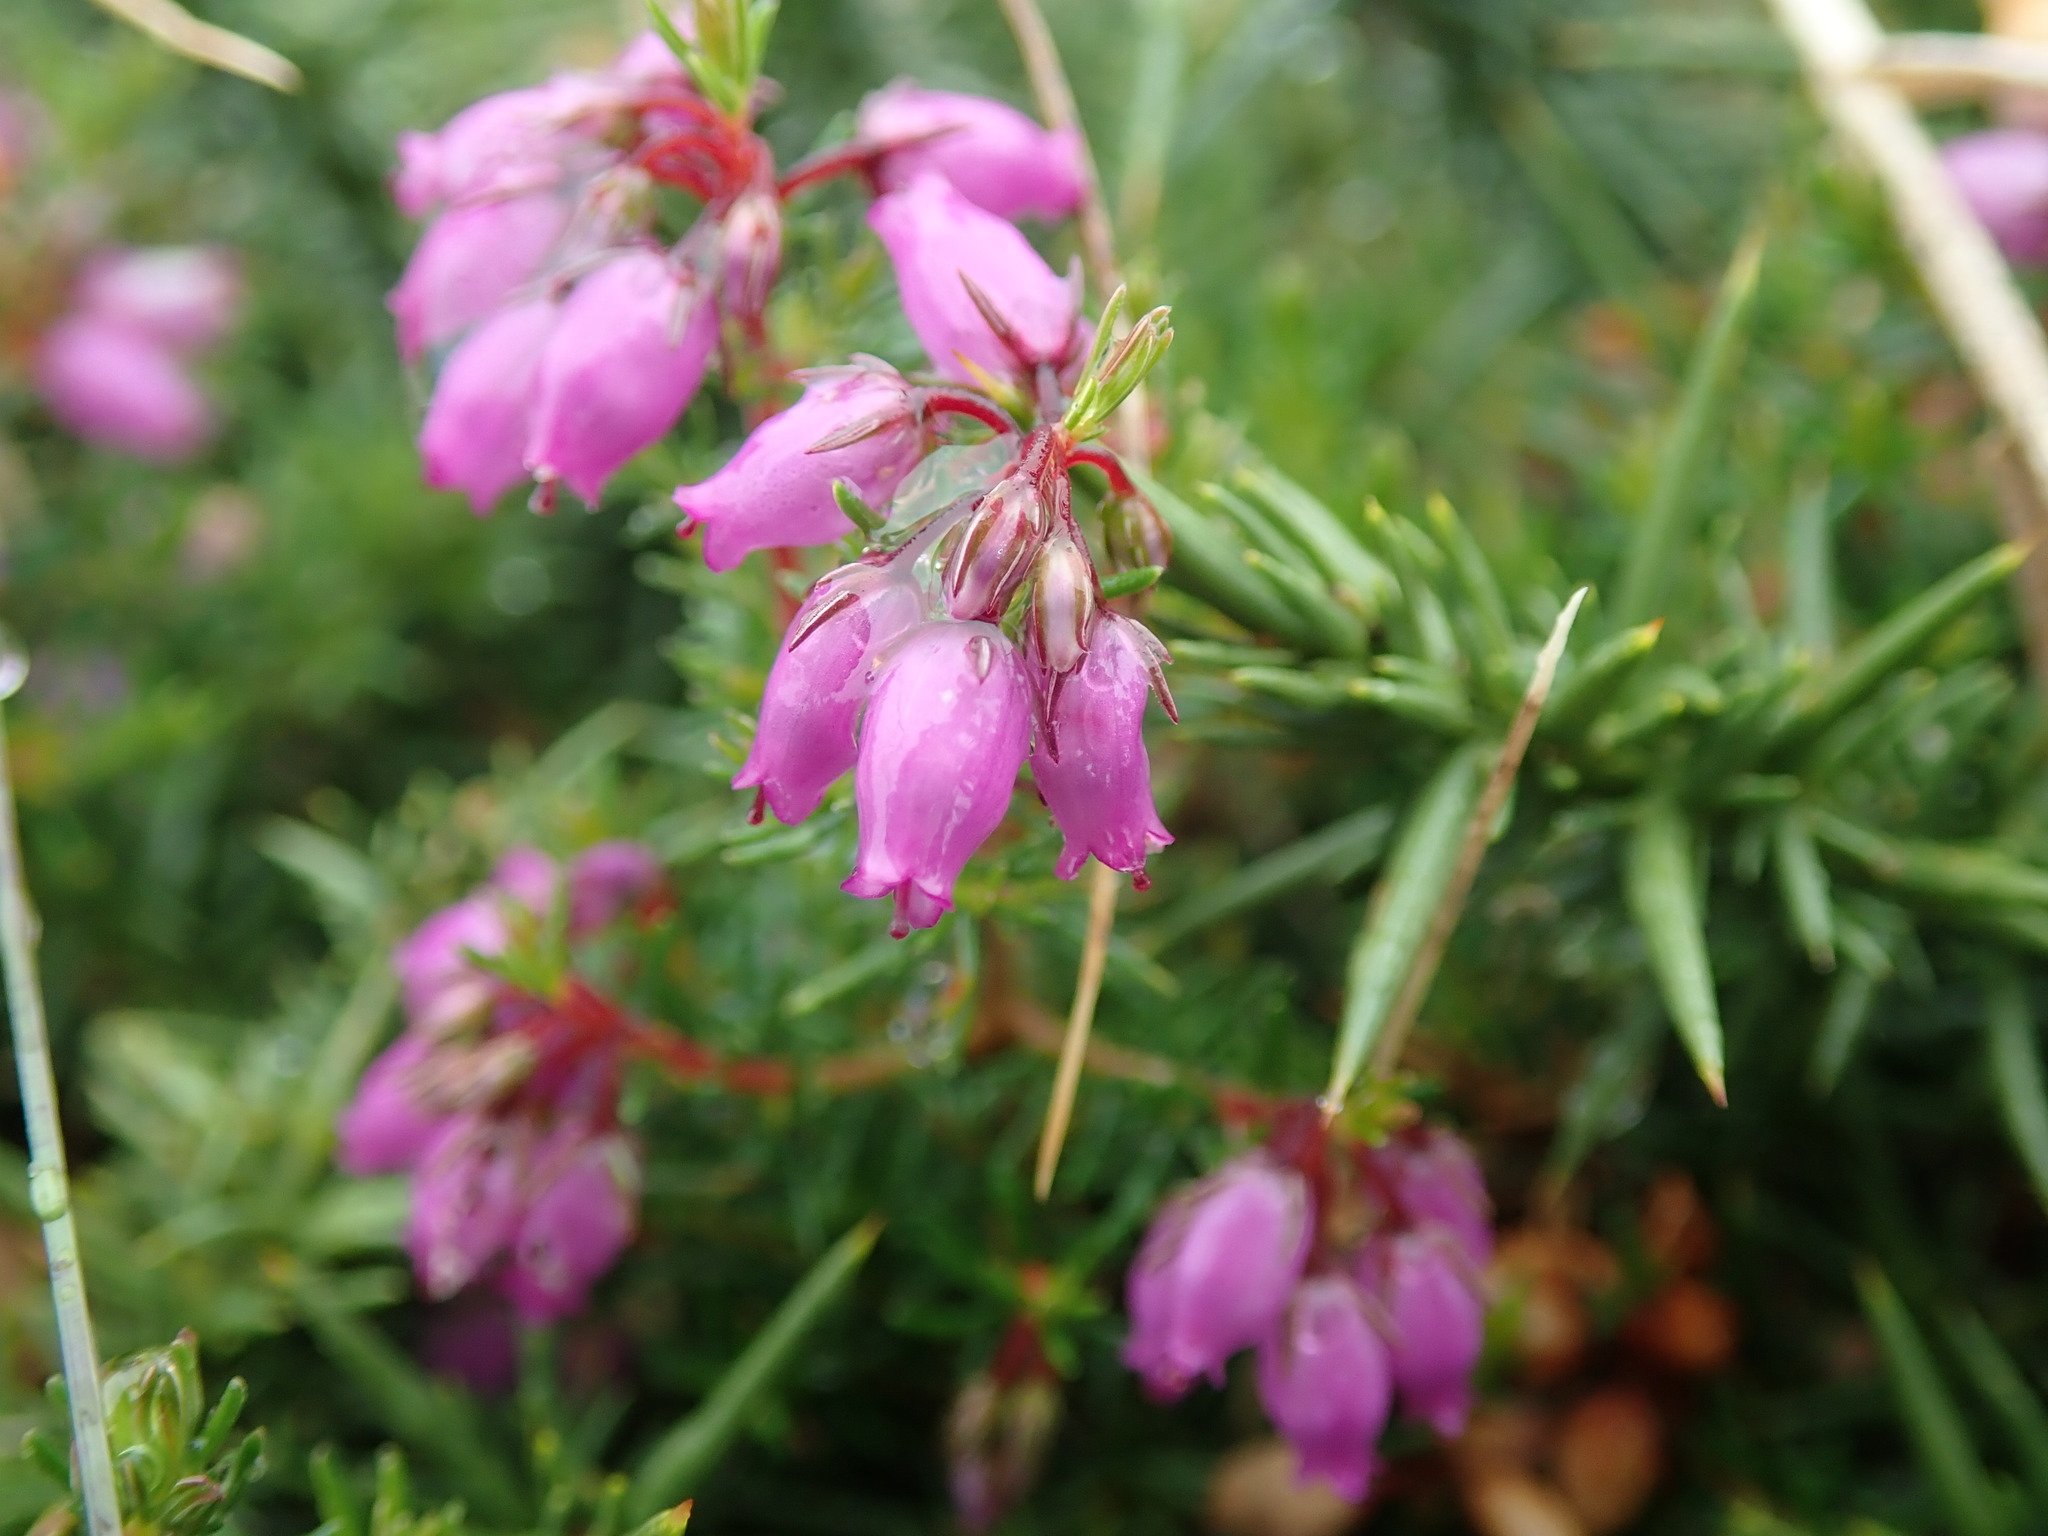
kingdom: Plantae
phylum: Tracheophyta
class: Magnoliopsida
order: Ericales
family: Ericaceae
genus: Erica
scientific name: Erica cinerea
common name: Bell heather
